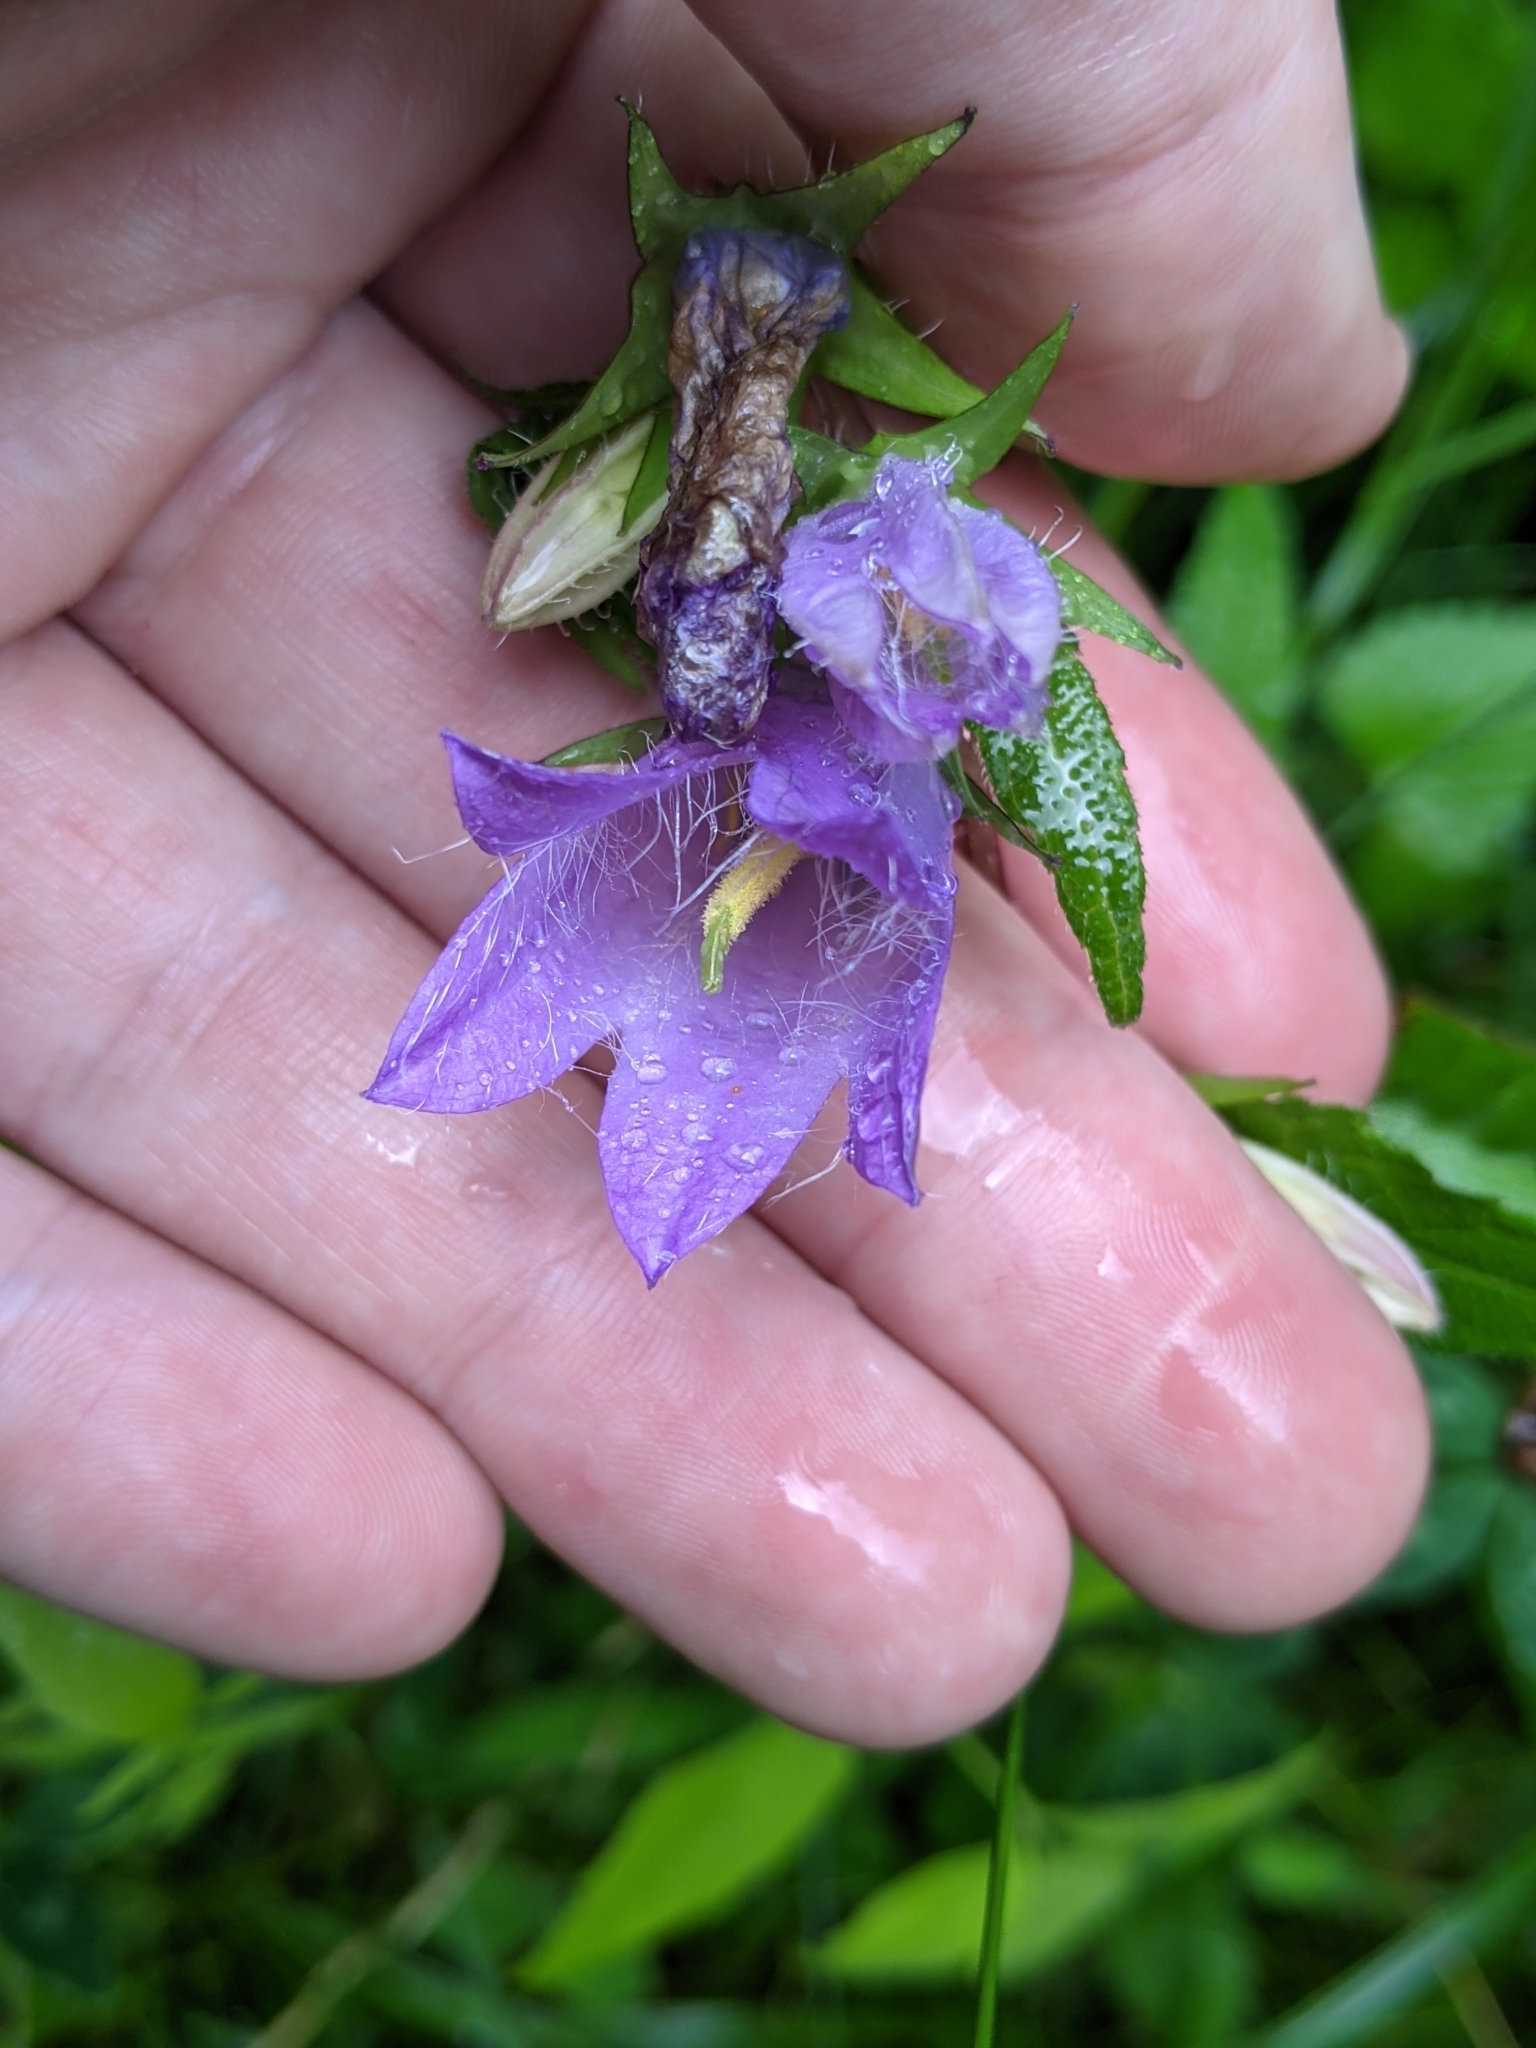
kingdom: Plantae
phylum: Tracheophyta
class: Magnoliopsida
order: Asterales
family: Campanulaceae
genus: Campanula
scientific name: Campanula trachelium
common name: Nettle-leaved bellflower
